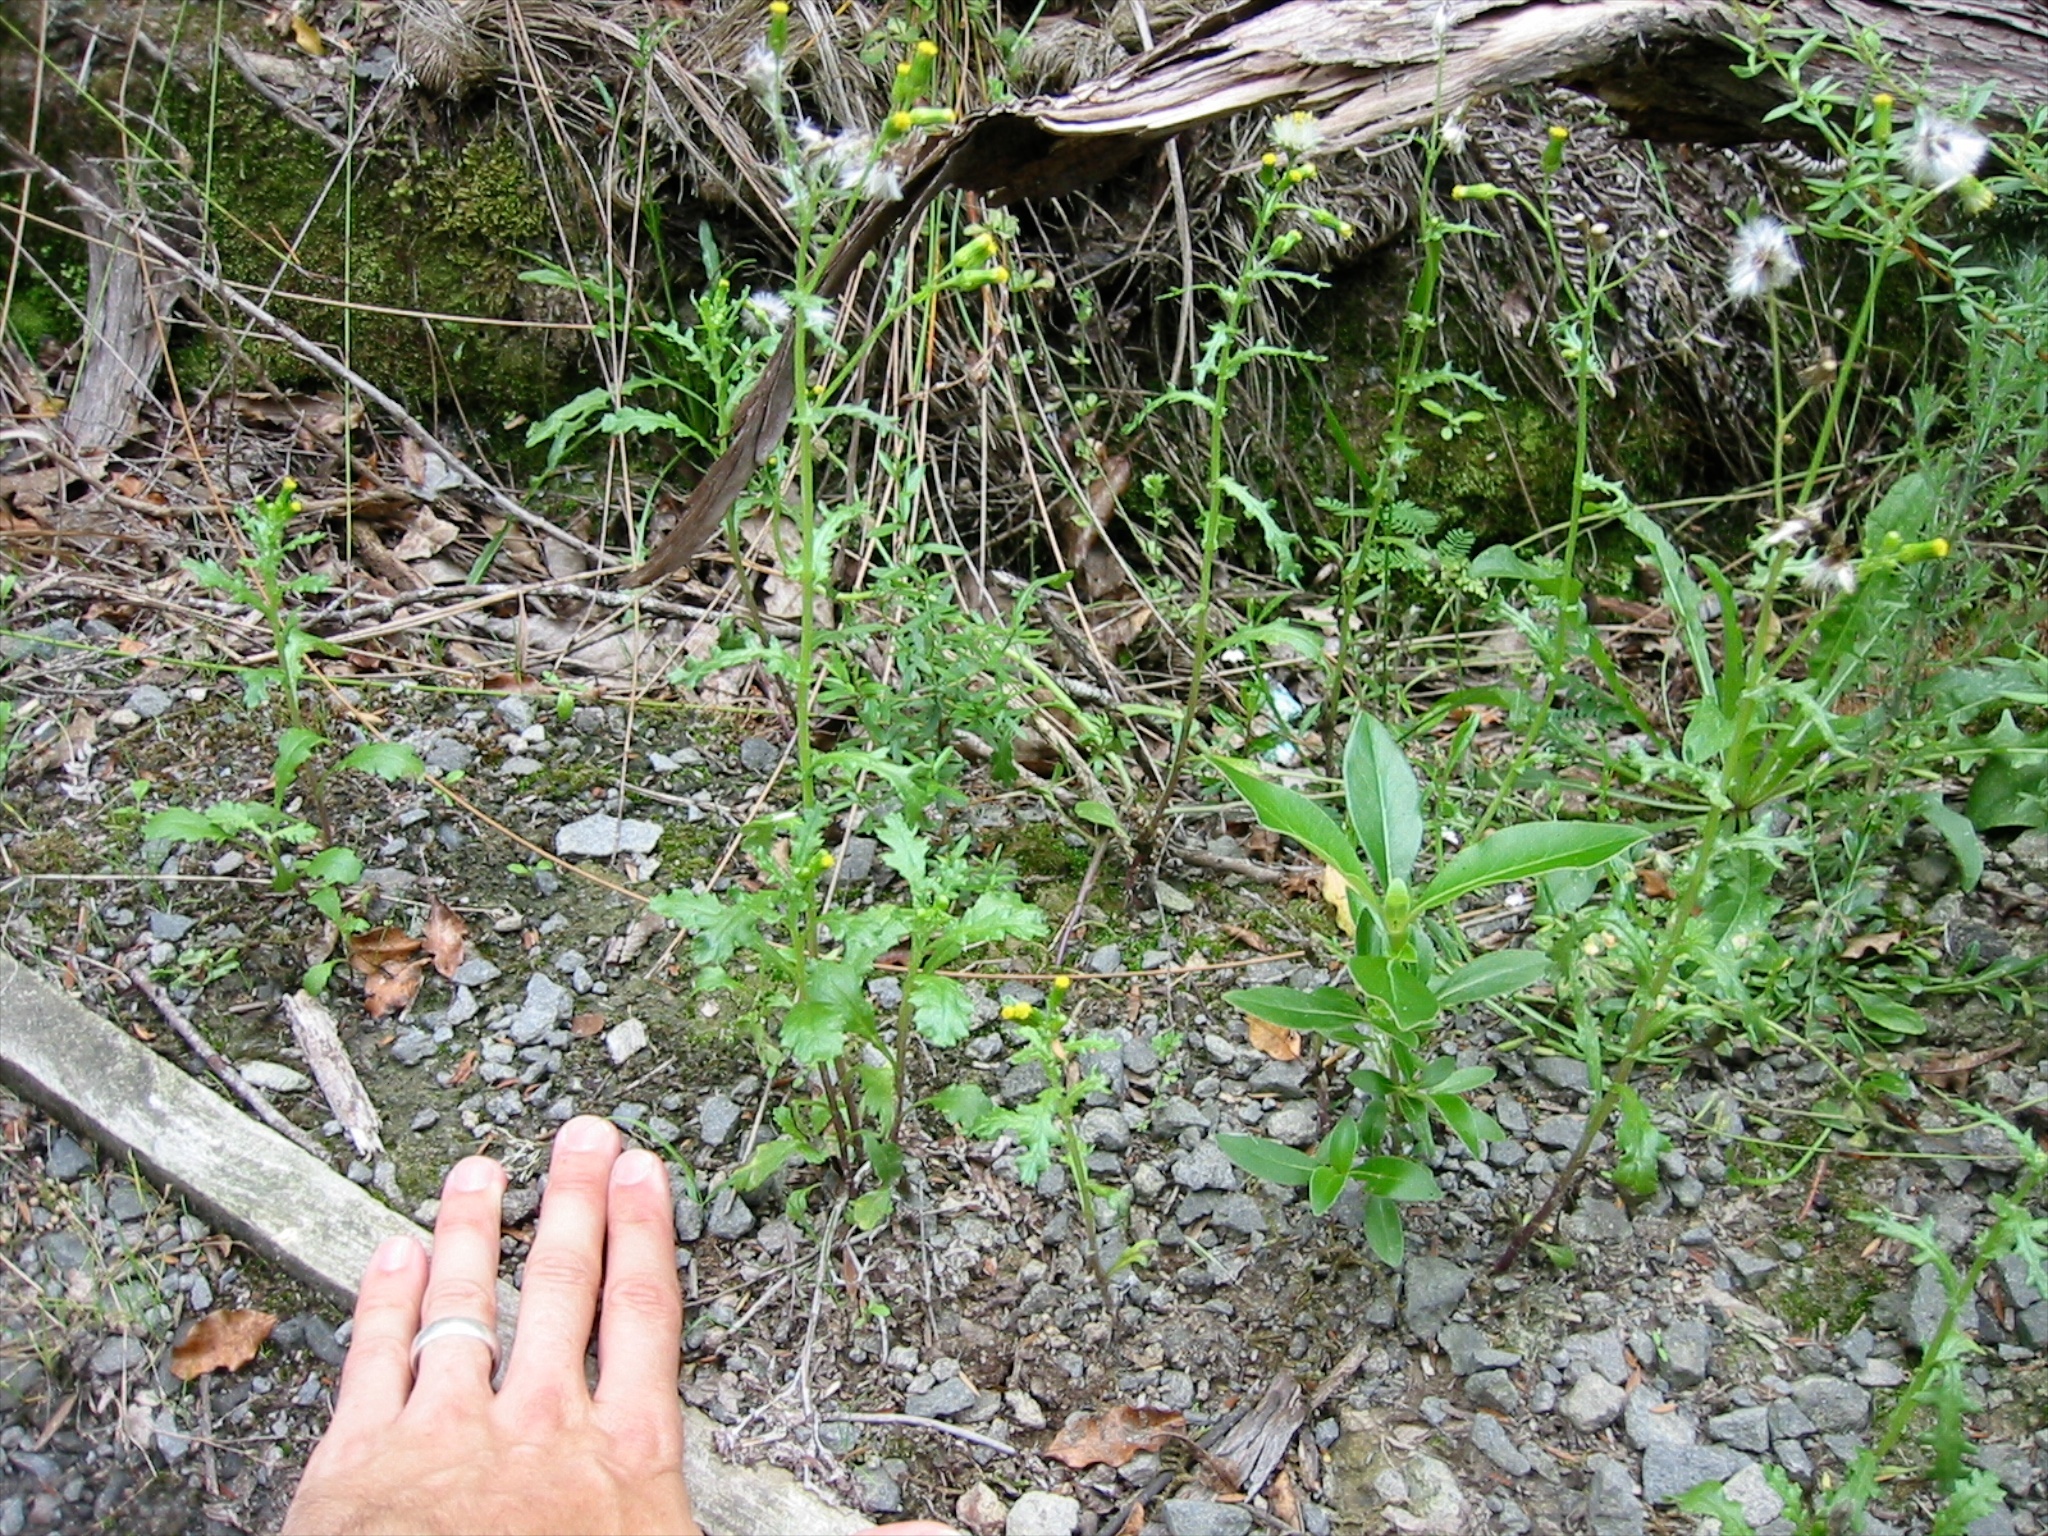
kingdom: Plantae
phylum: Tracheophyta
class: Magnoliopsida
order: Asterales
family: Asteraceae
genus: Senecio
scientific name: Senecio vulgaris
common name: Old-man-in-the-spring
